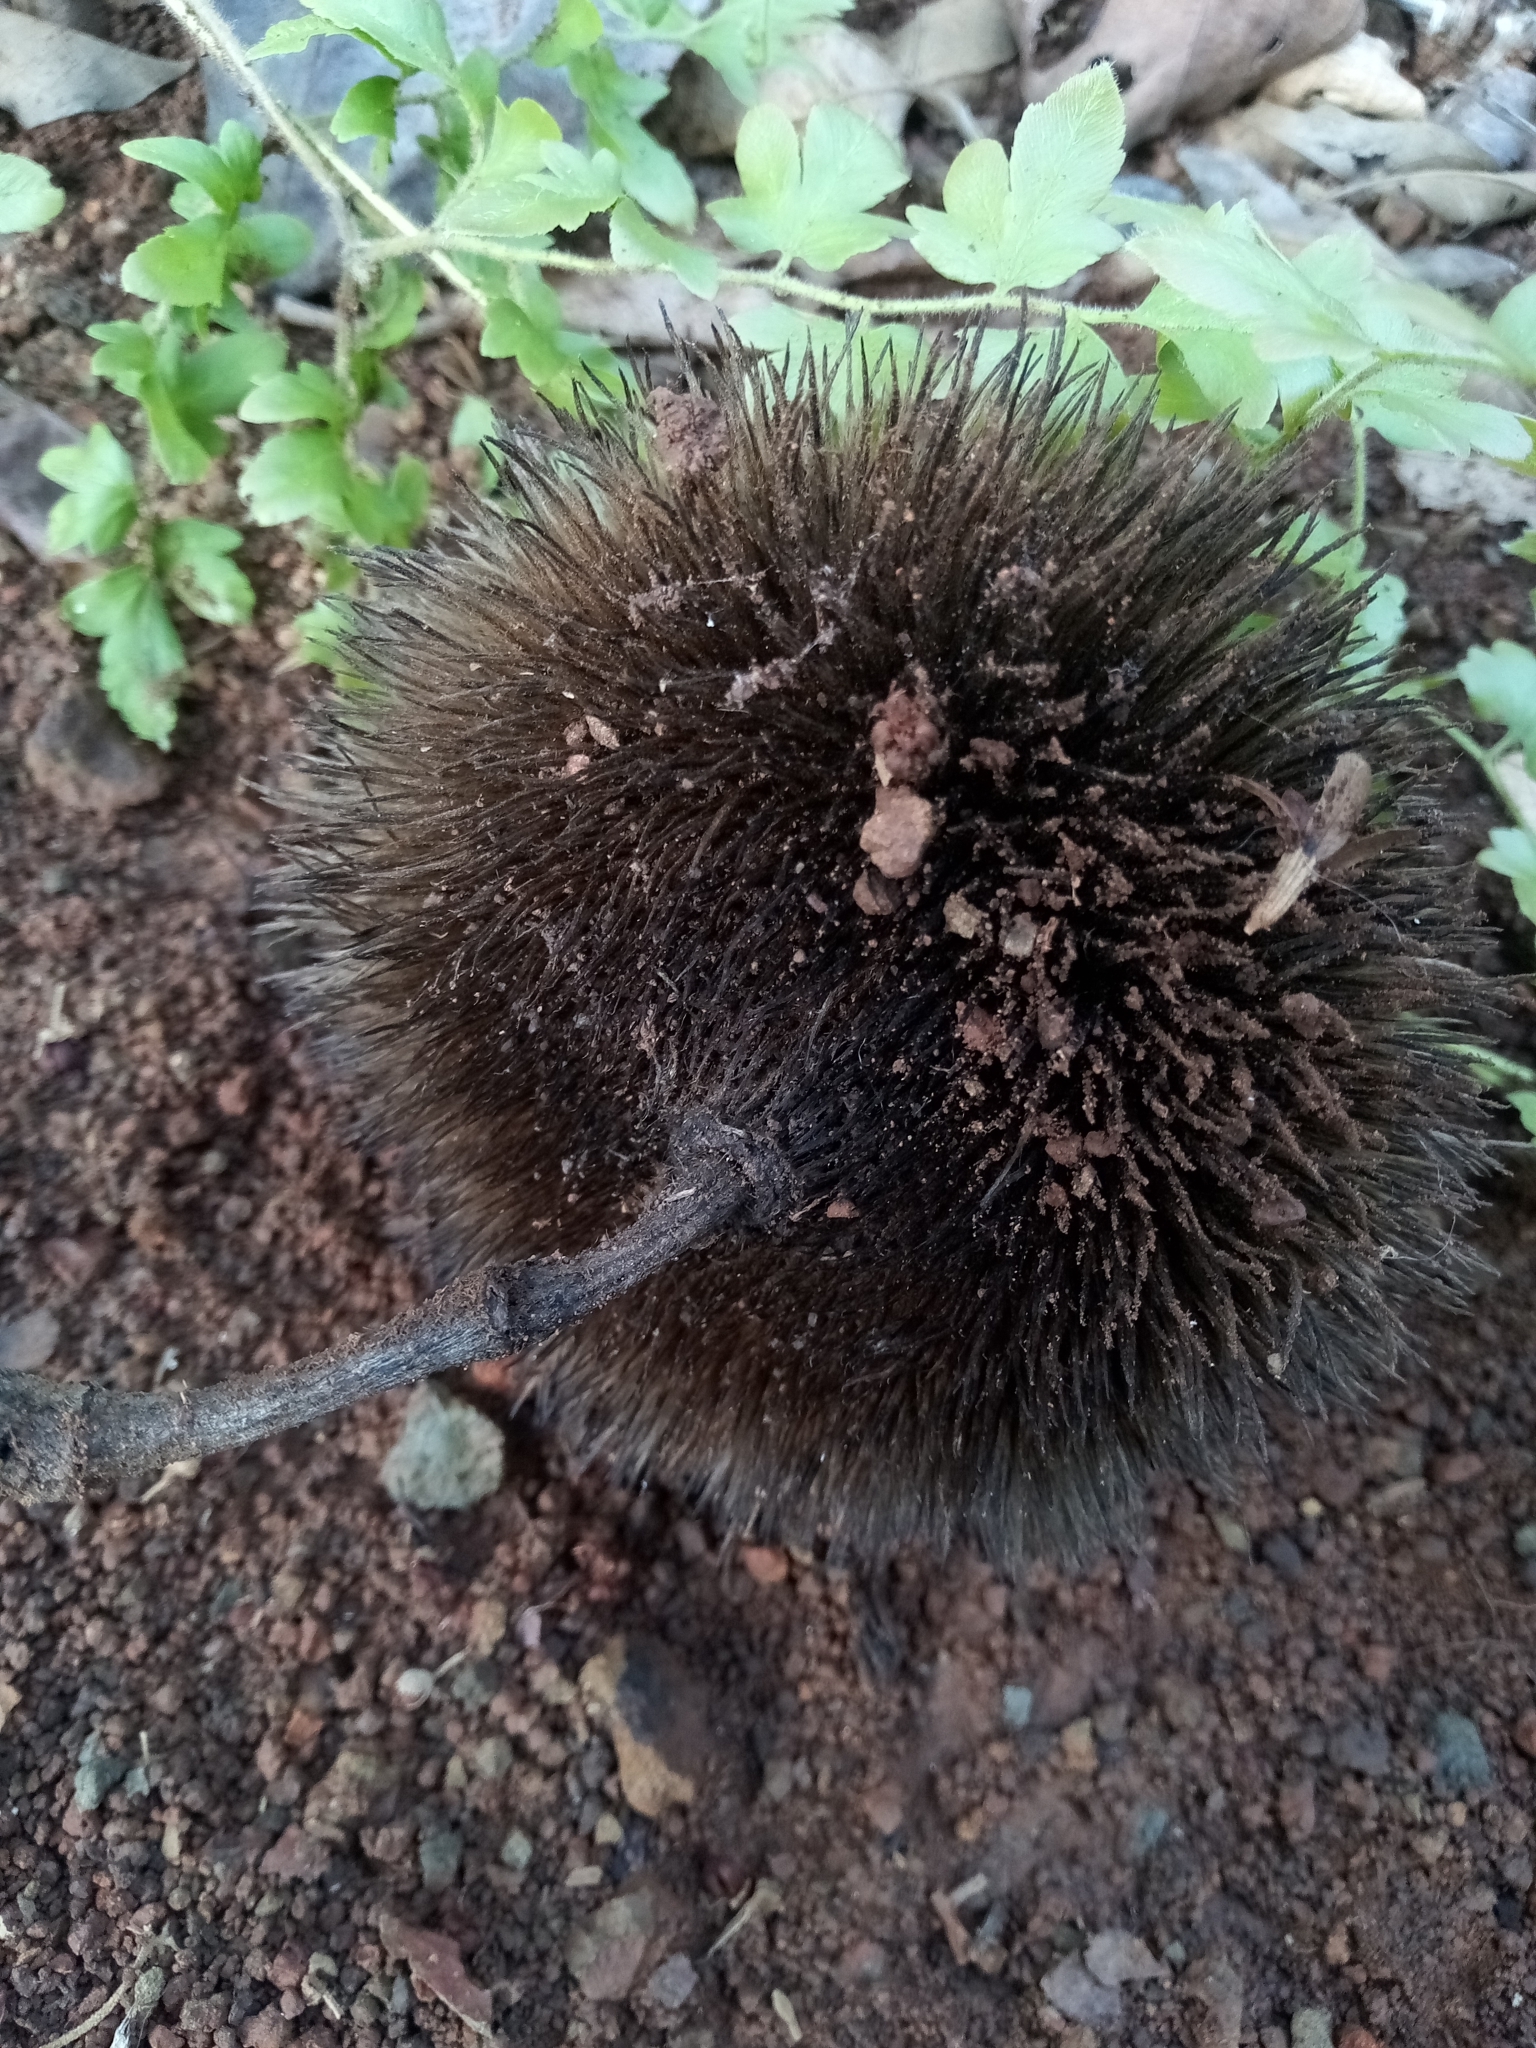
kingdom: Plantae
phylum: Tracheophyta
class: Magnoliopsida
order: Malvales
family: Malvaceae
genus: Apeiba
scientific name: Apeiba tibourbou
